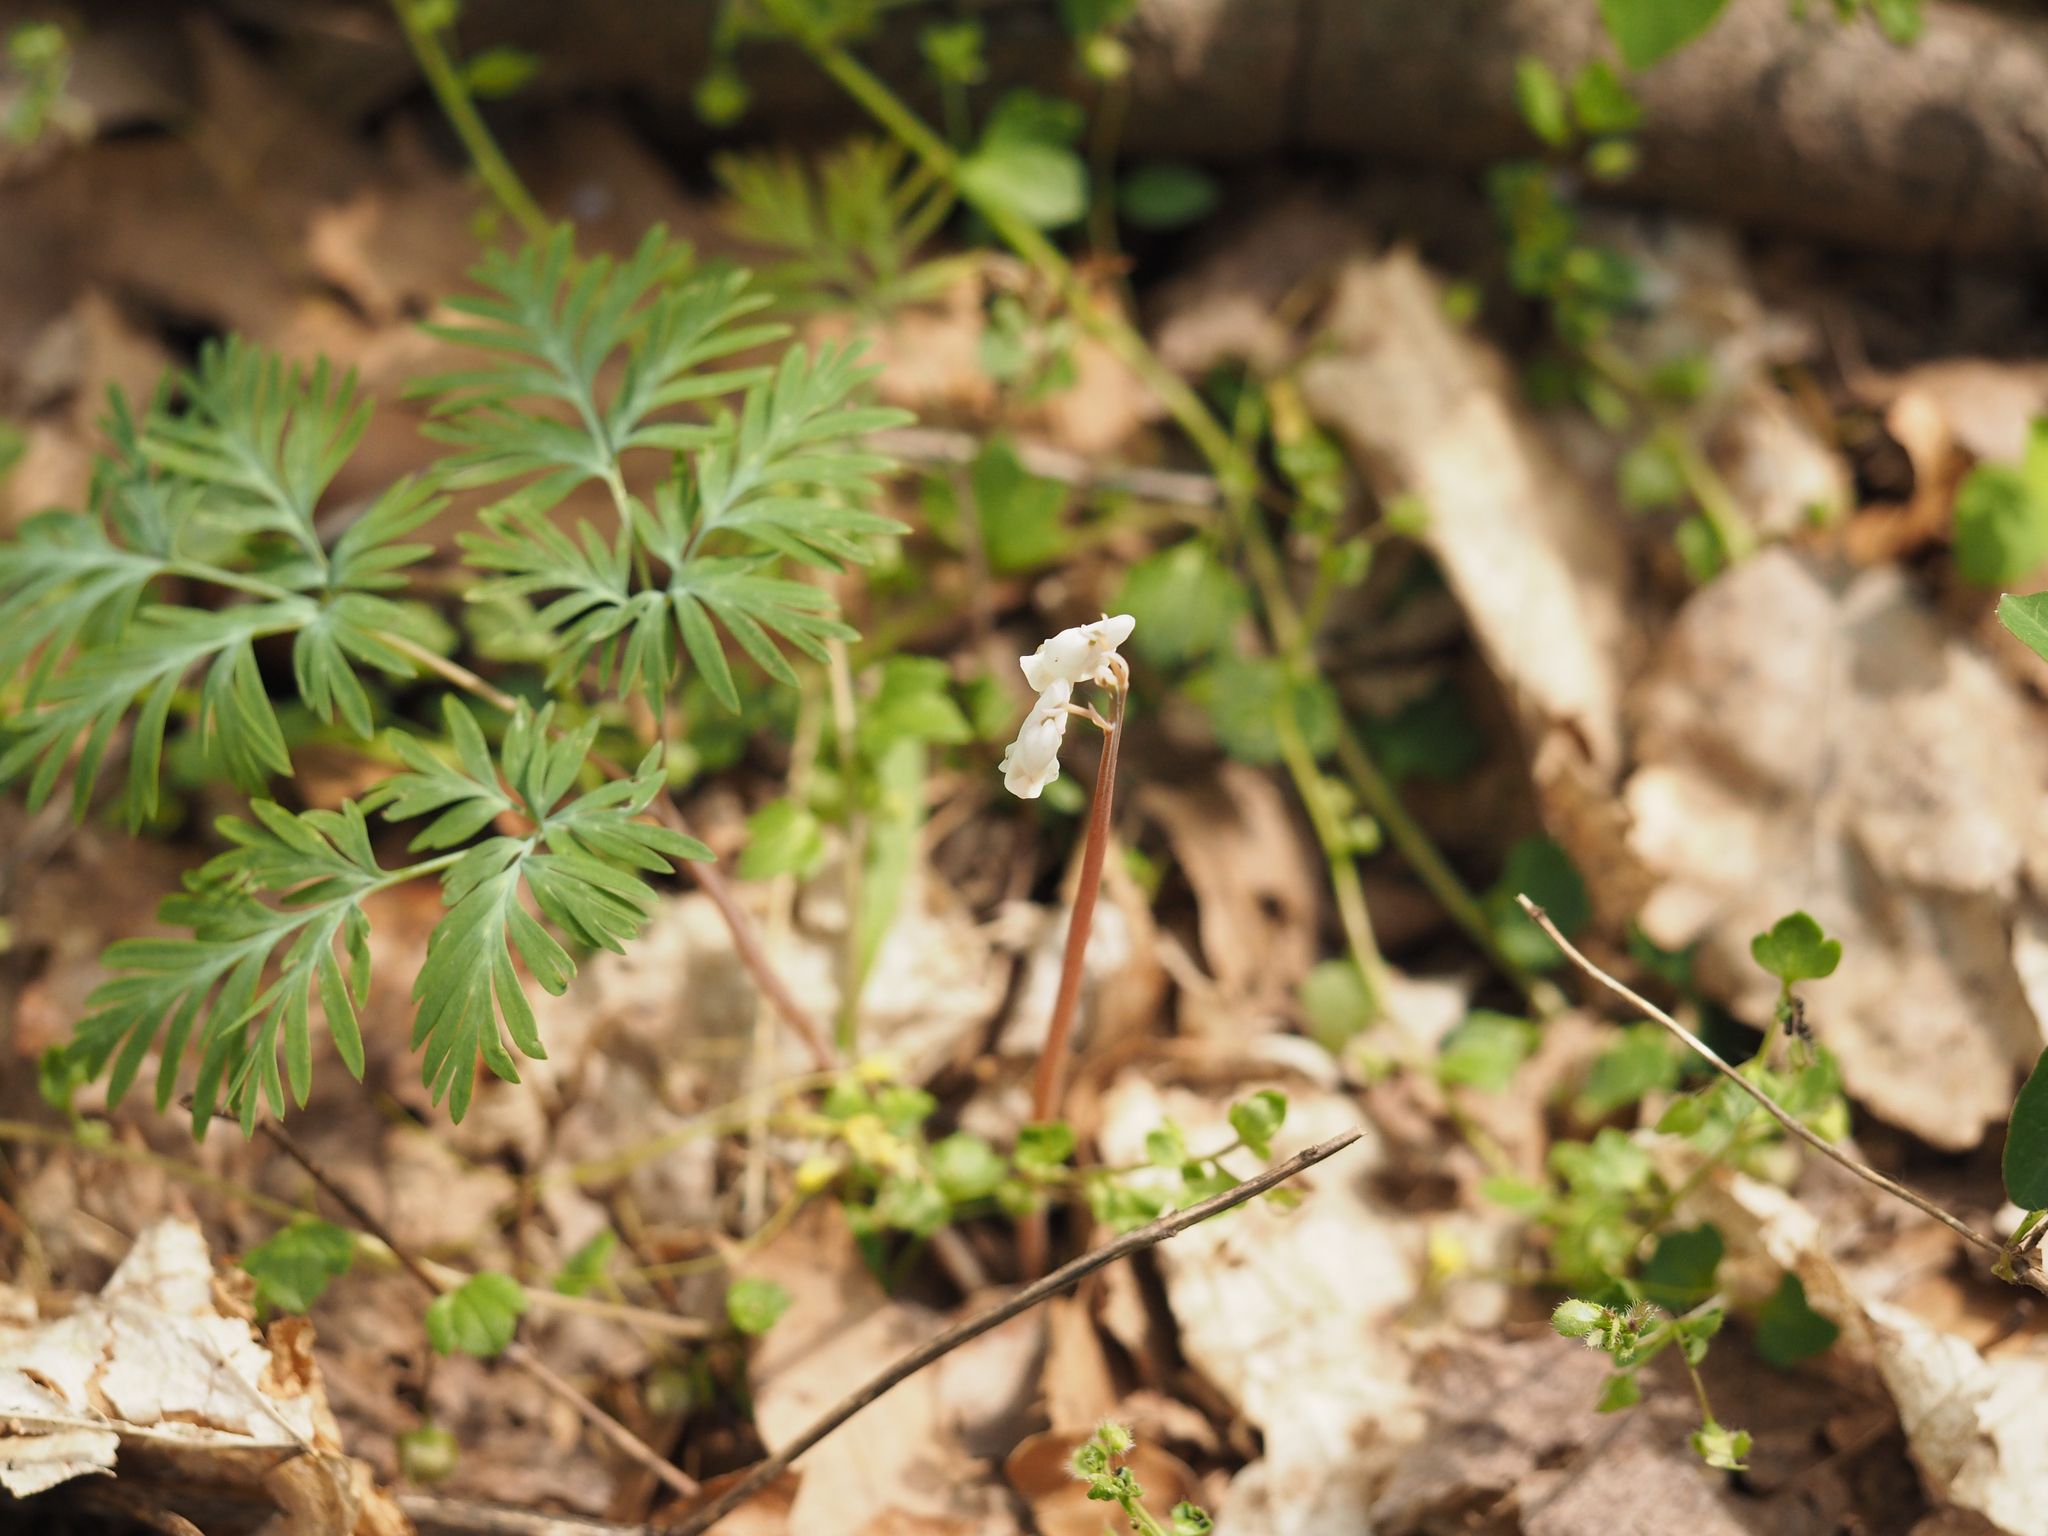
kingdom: Plantae
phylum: Tracheophyta
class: Magnoliopsida
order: Ranunculales
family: Papaveraceae
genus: Dicentra
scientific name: Dicentra canadensis
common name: Squirrel-corn
